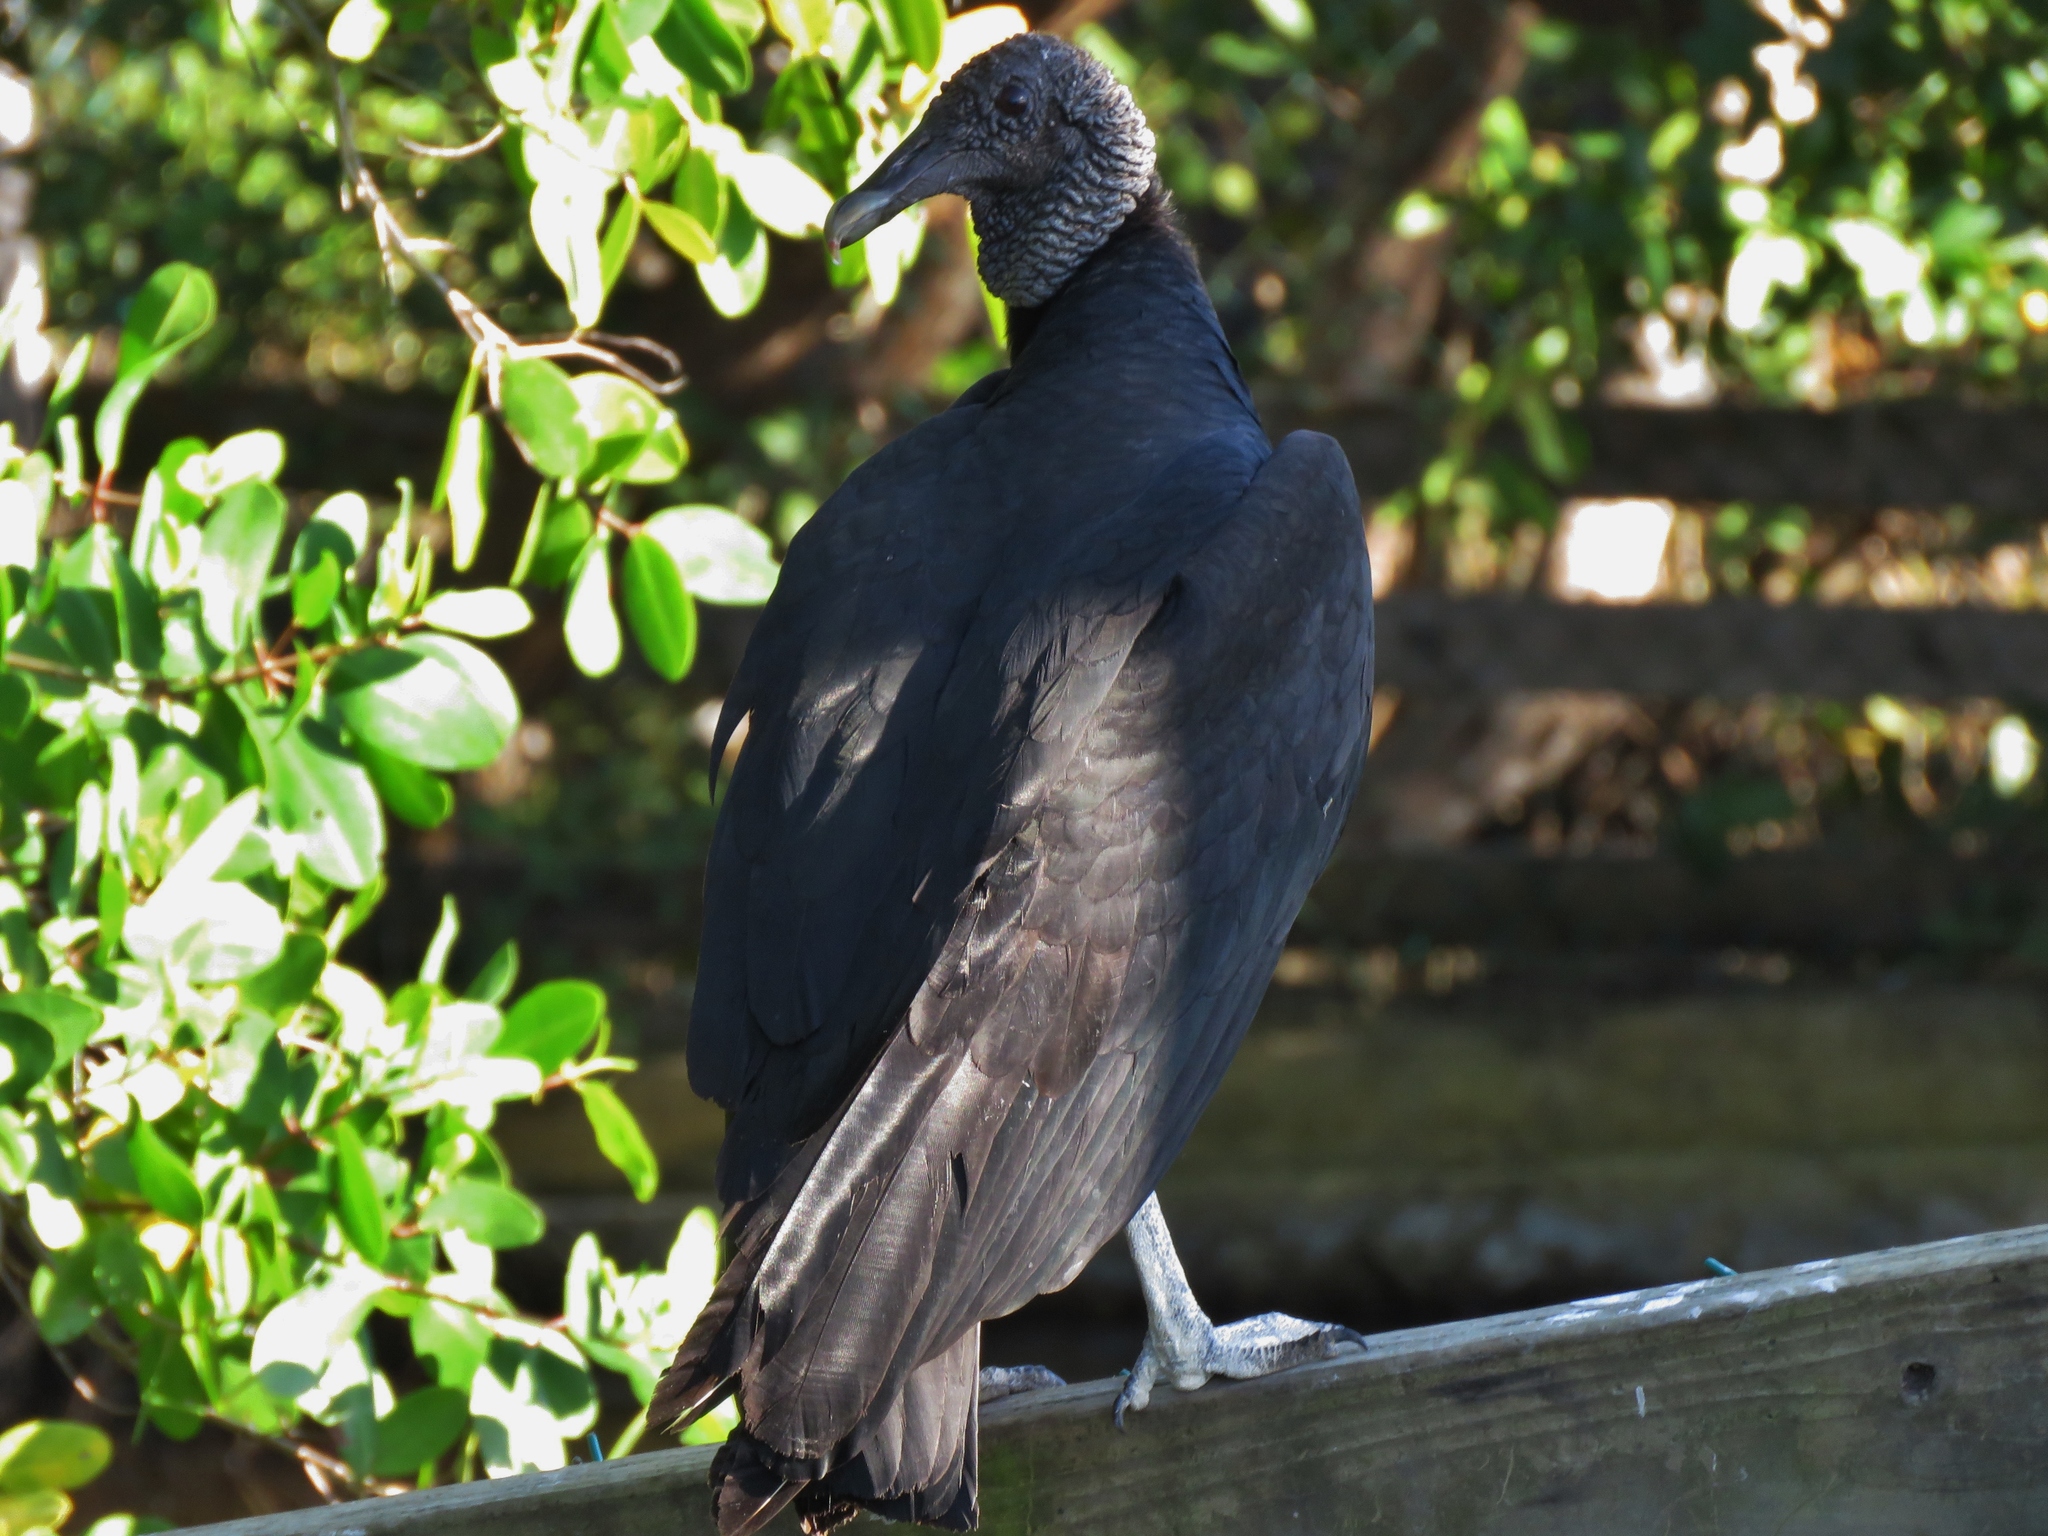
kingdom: Animalia
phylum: Chordata
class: Aves
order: Accipitriformes
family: Cathartidae
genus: Coragyps
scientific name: Coragyps atratus
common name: Black vulture
